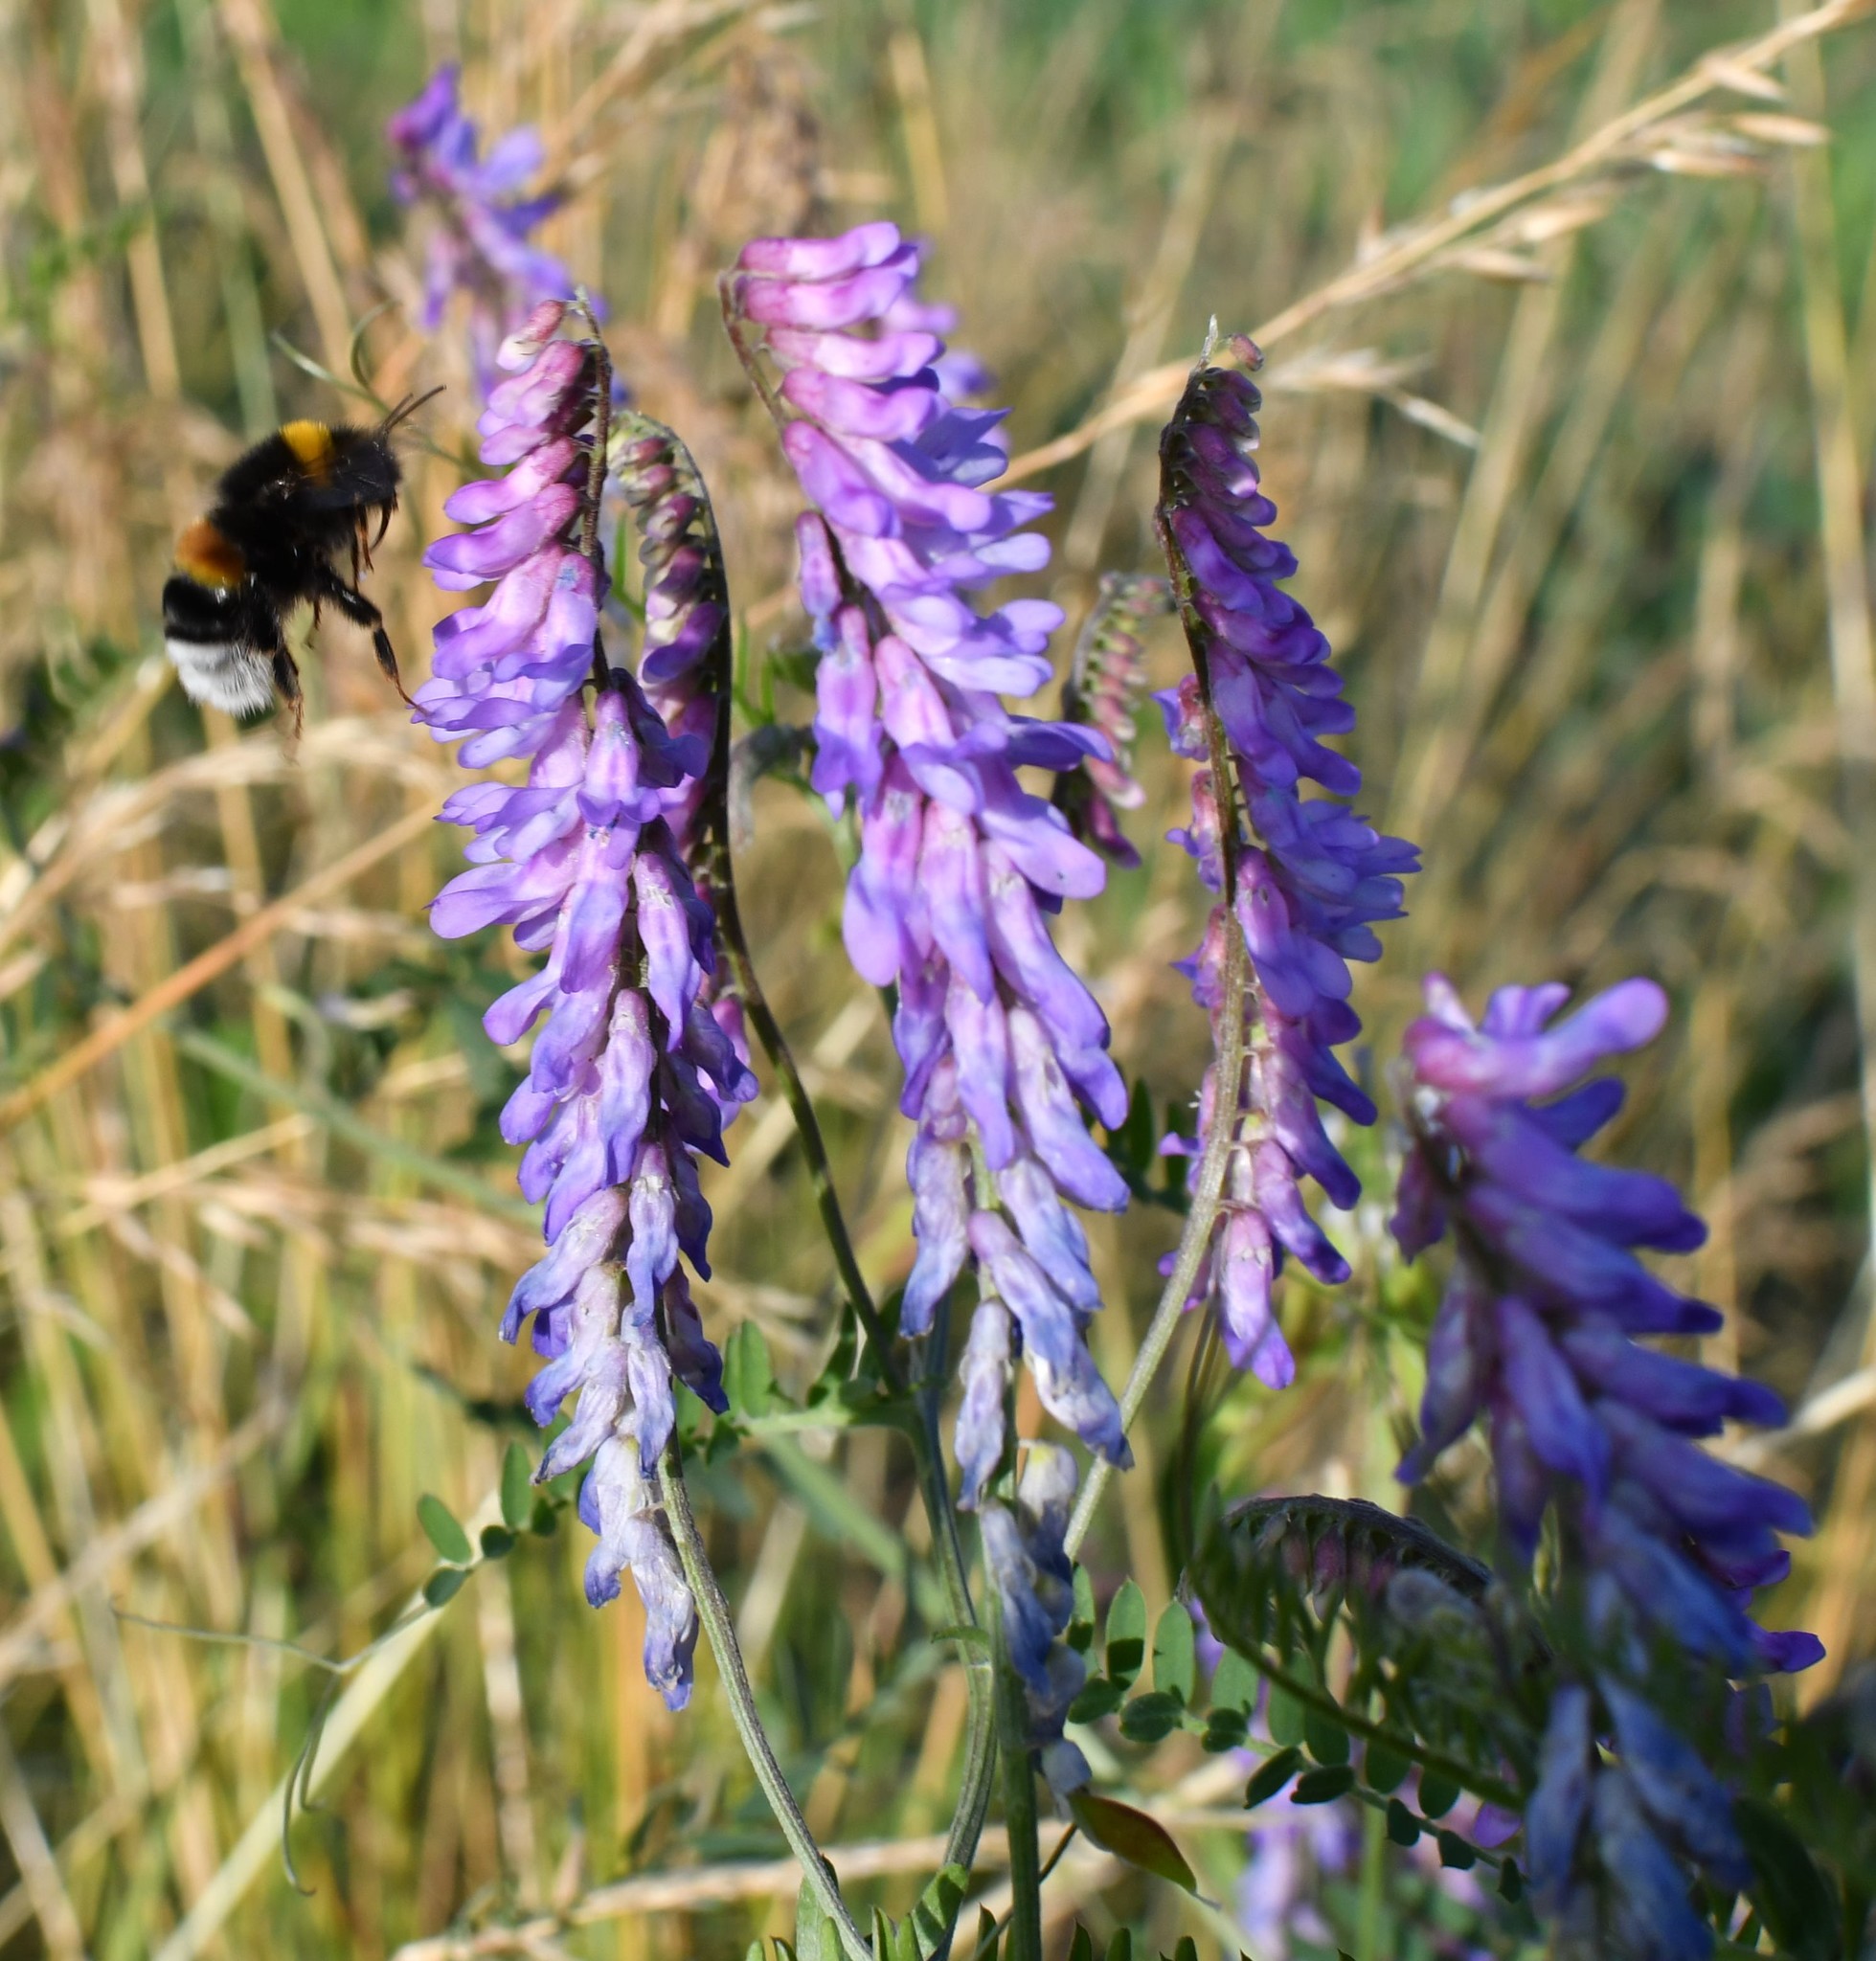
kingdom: Plantae
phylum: Tracheophyta
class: Magnoliopsida
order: Fabales
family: Fabaceae
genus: Vicia
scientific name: Vicia cracca
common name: Bird vetch
